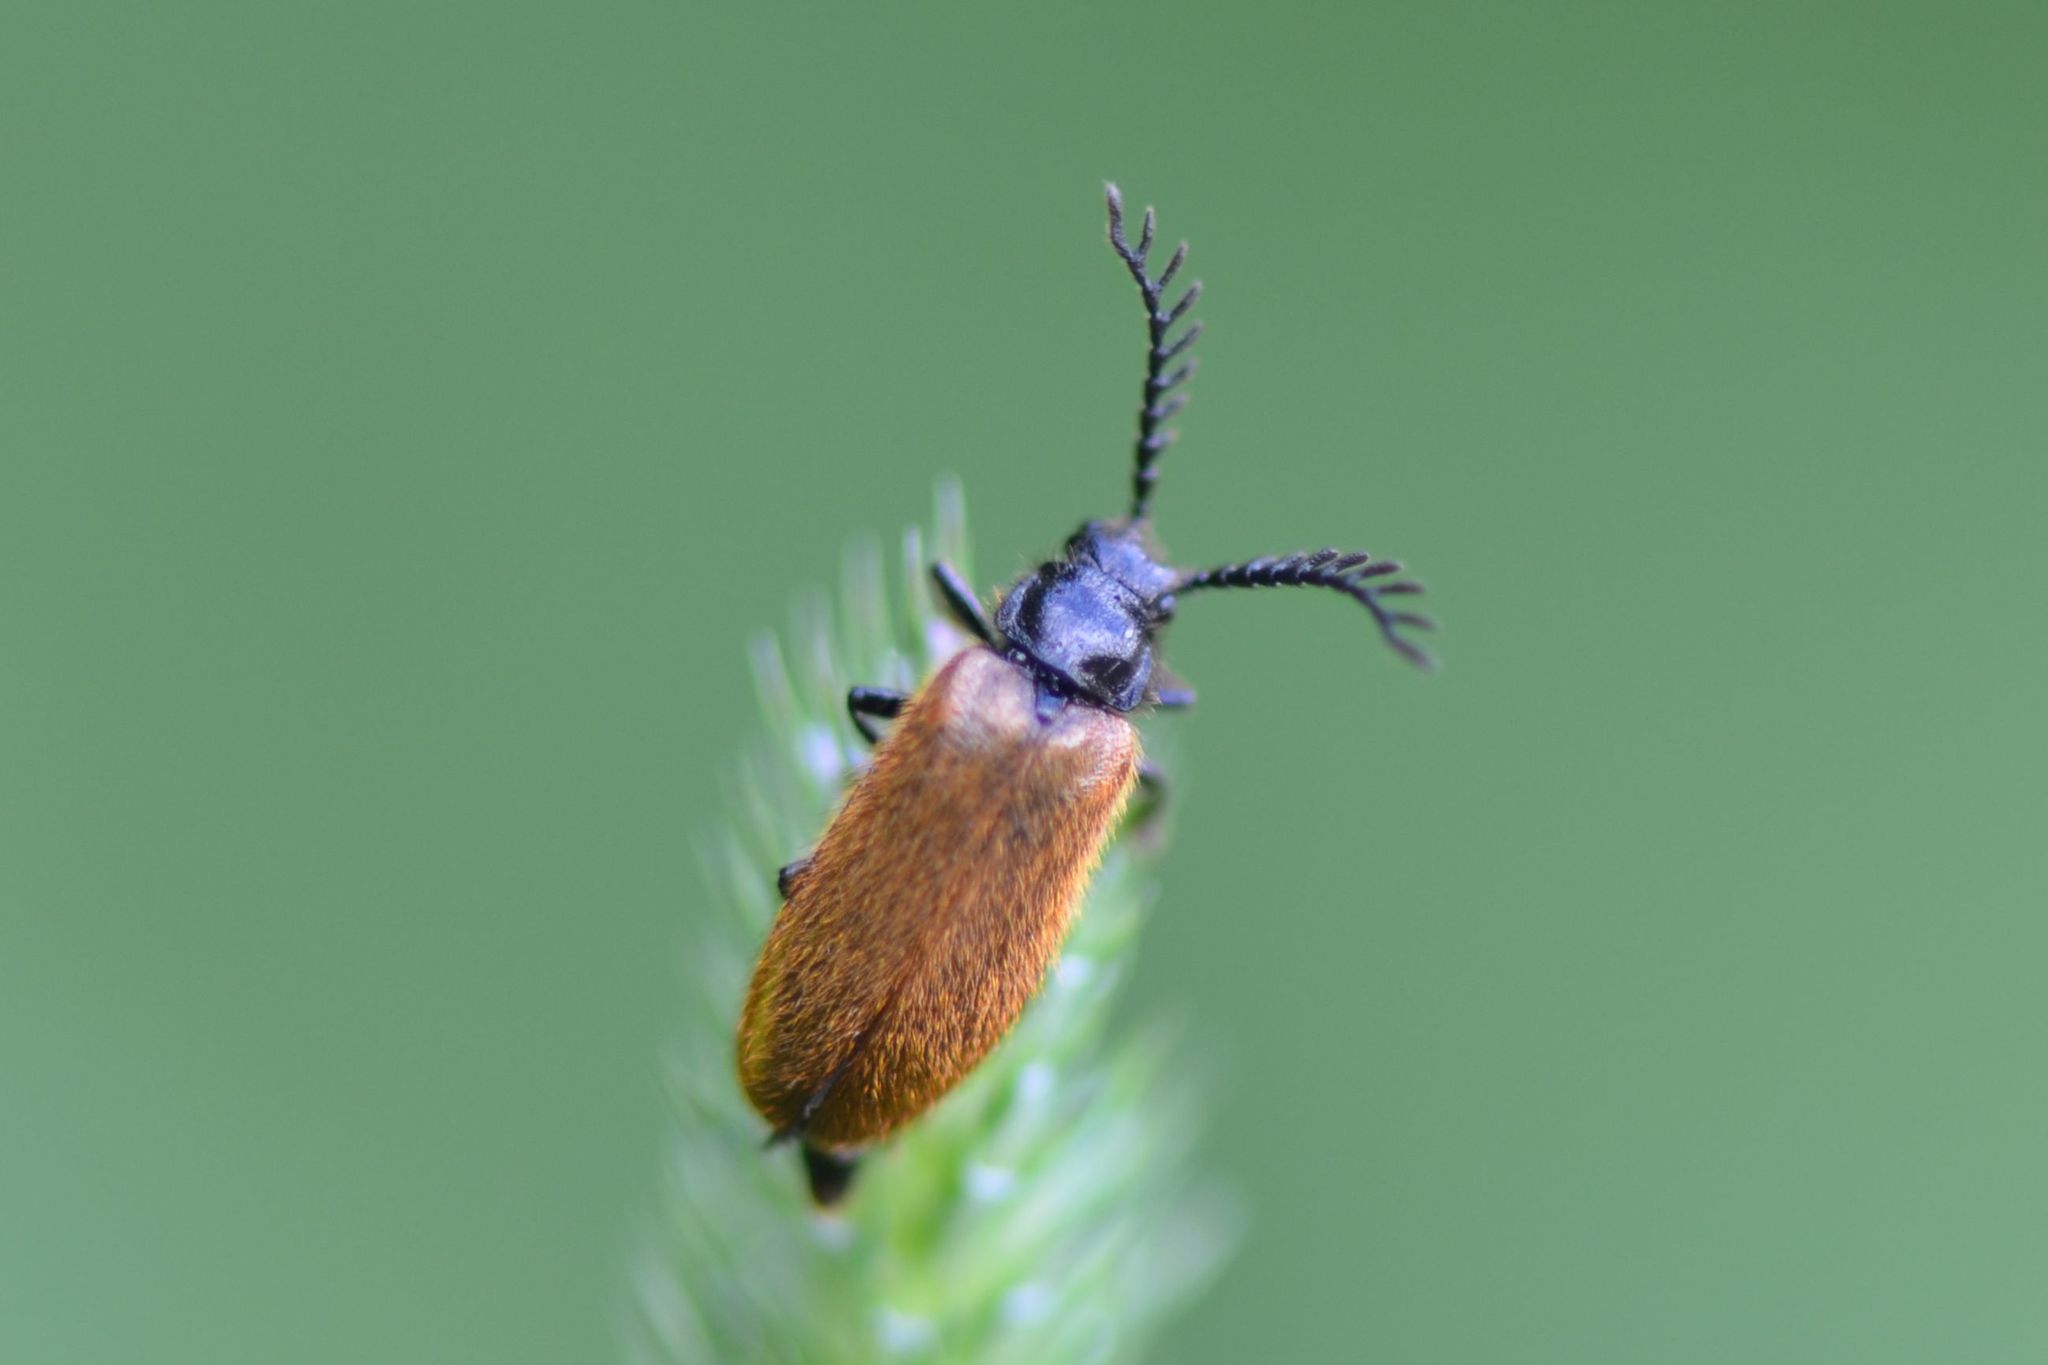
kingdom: Animalia
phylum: Arthropoda
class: Insecta
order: Coleoptera
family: Drilidae
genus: Drilus
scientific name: Drilus flavescens
